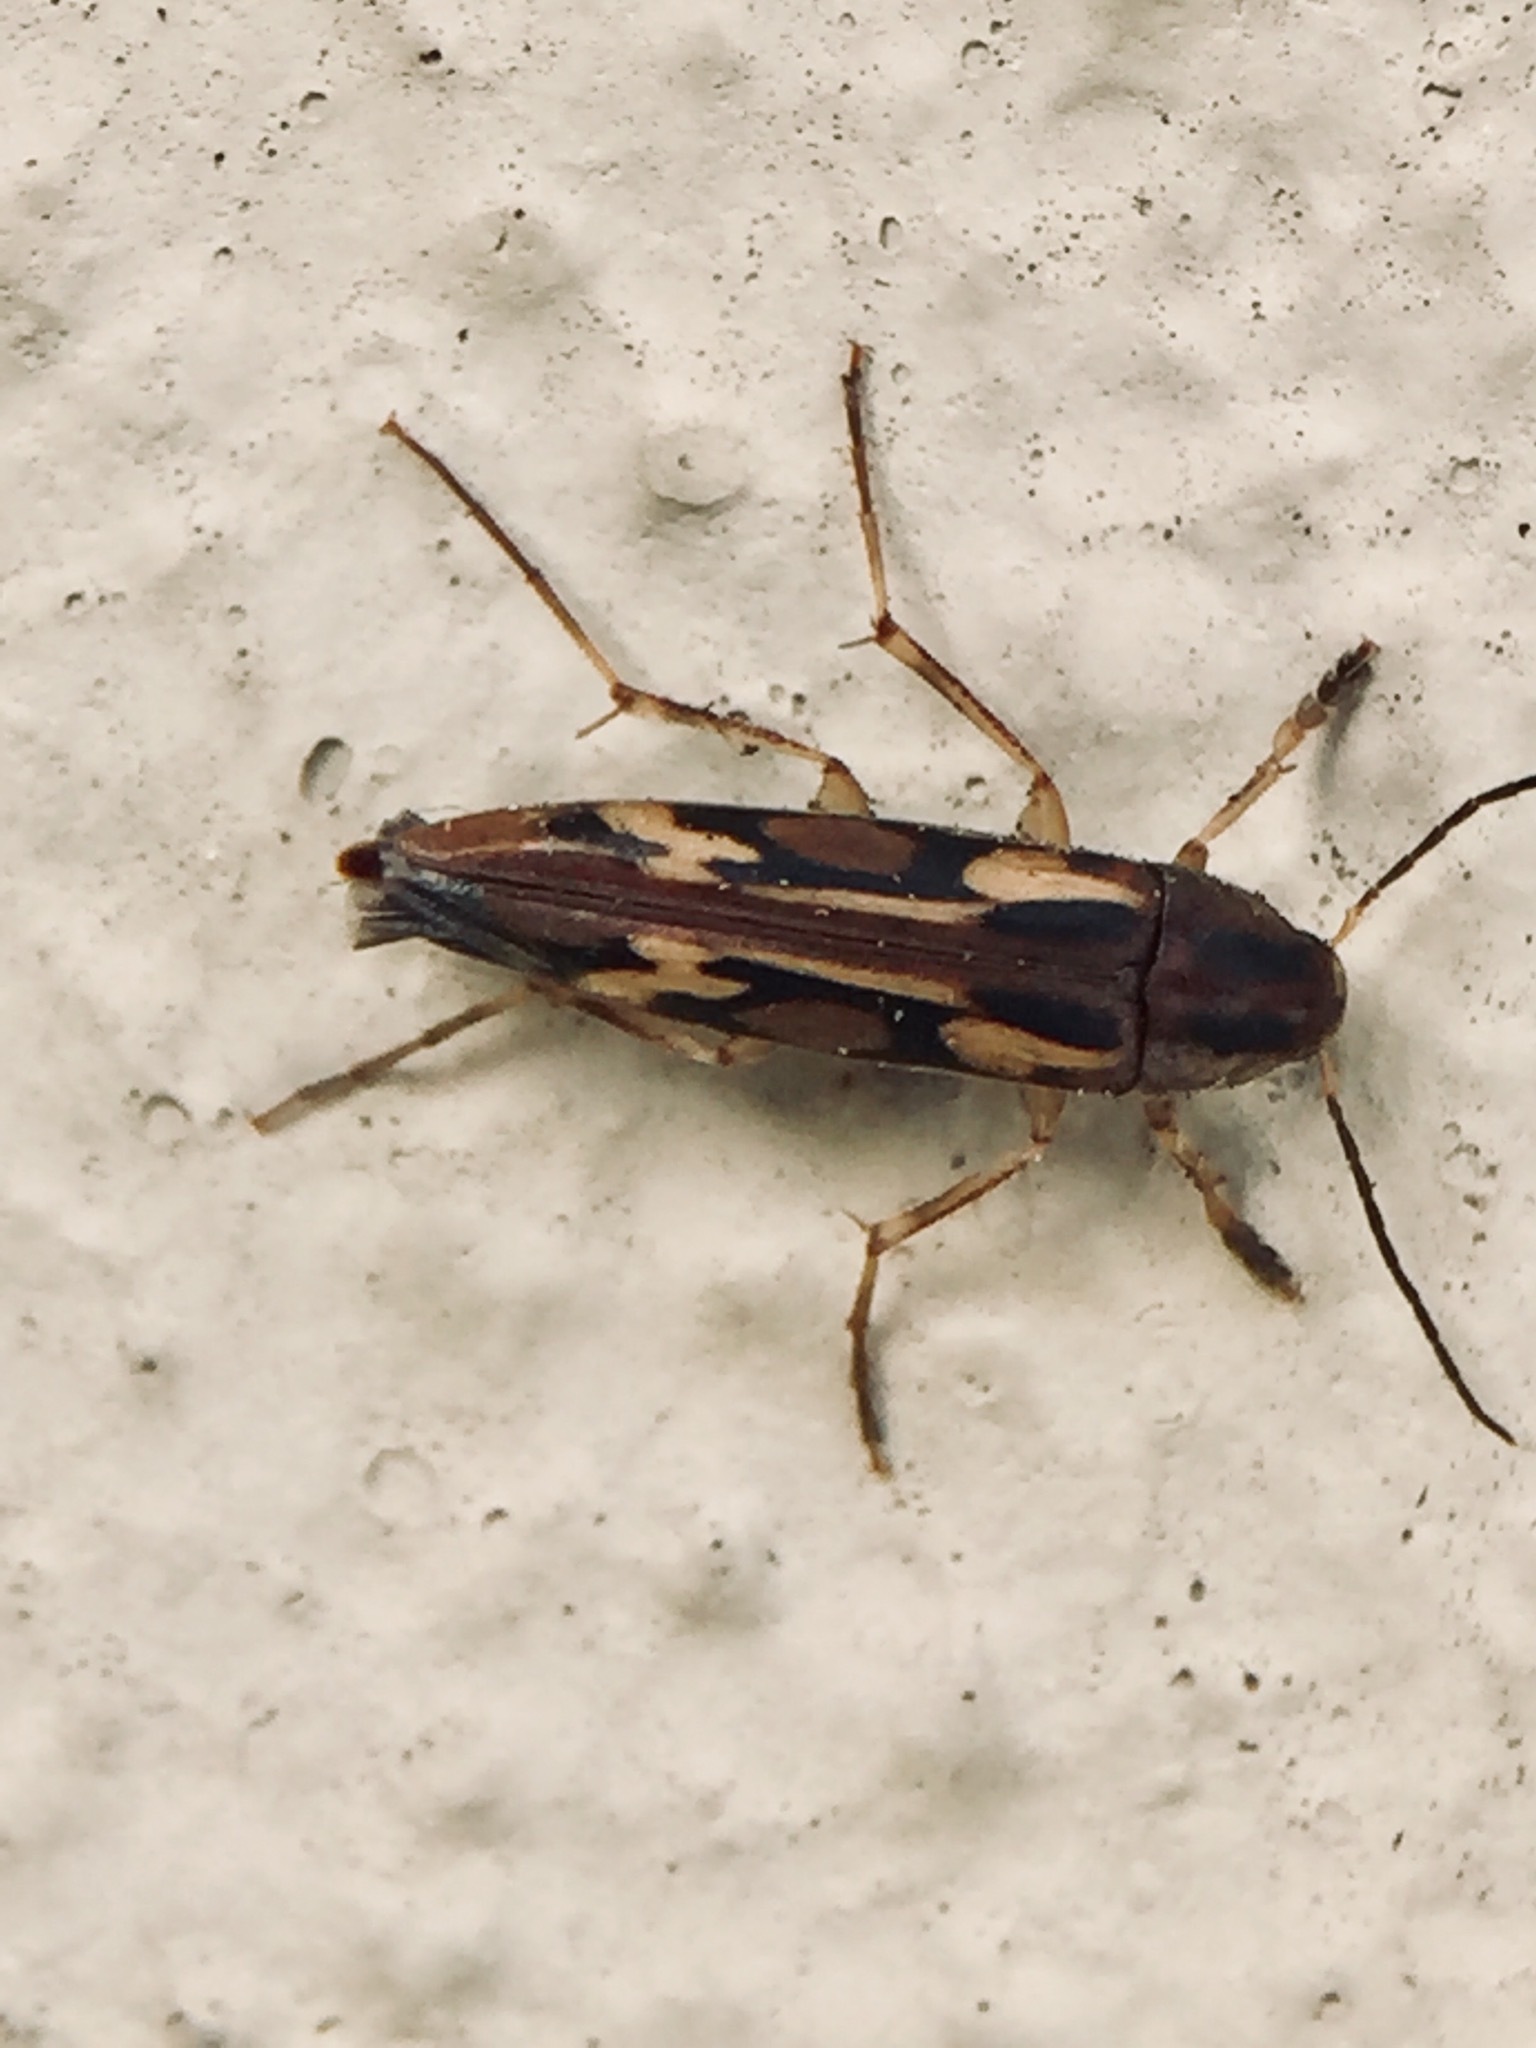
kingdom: Animalia
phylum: Arthropoda
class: Insecta
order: Neuroptera
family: Mesochrysopidae
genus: Allopterus
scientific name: Allopterus
